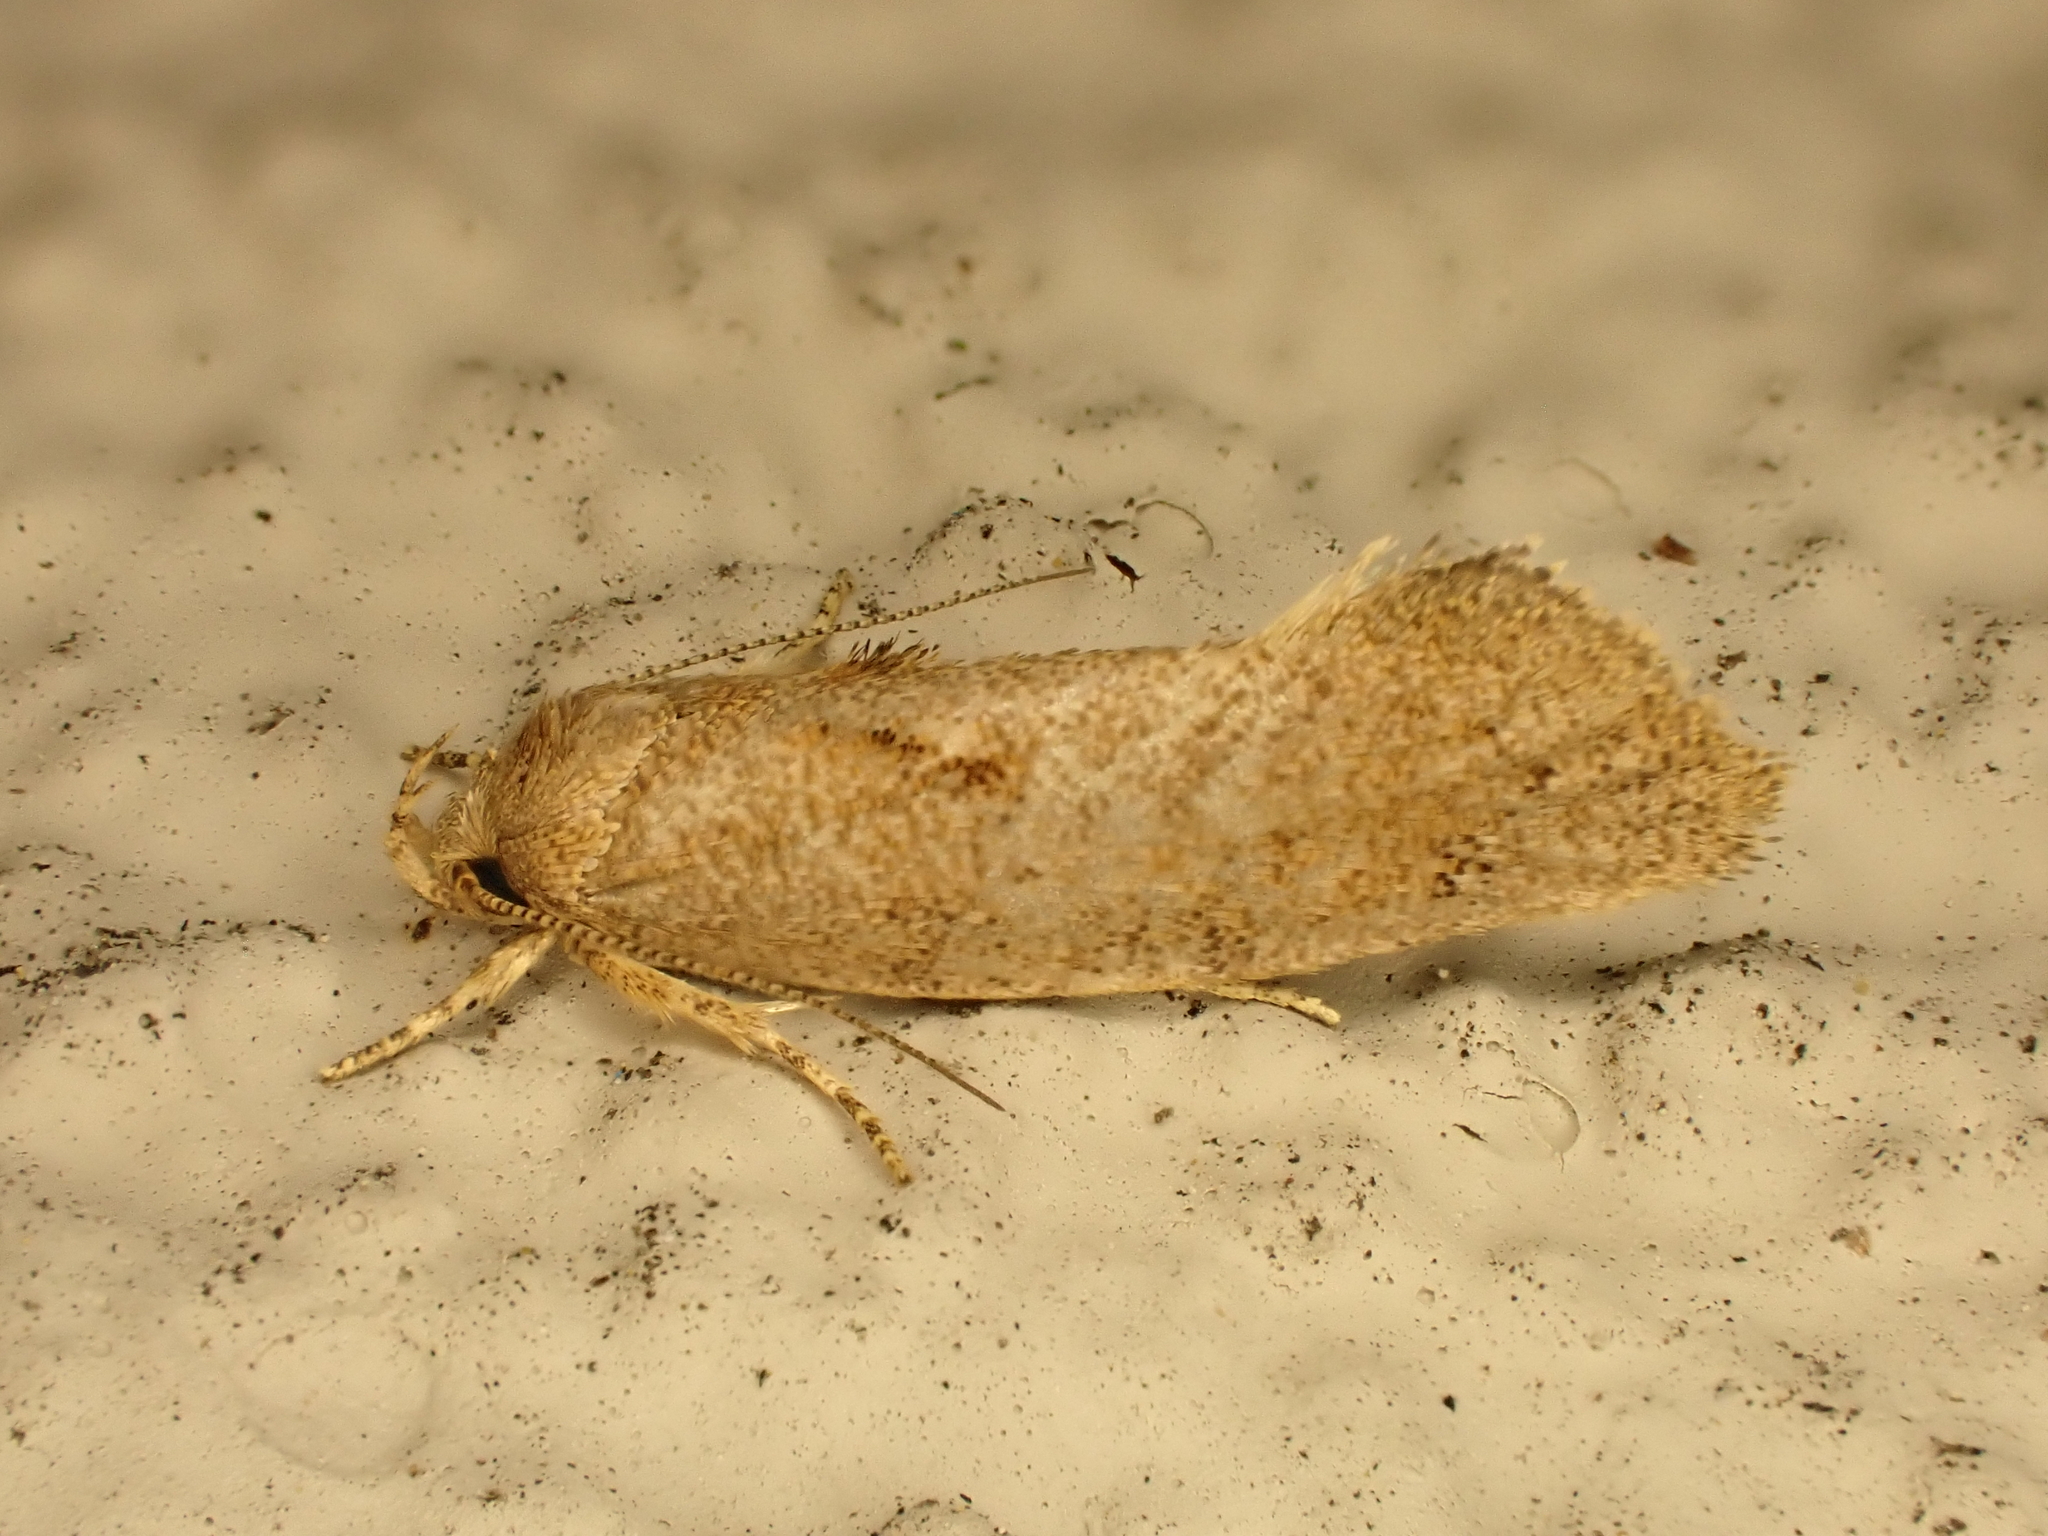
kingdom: Animalia
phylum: Arthropoda
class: Insecta
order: Lepidoptera
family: Oecophoridae
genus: Tingena
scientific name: Tingena
